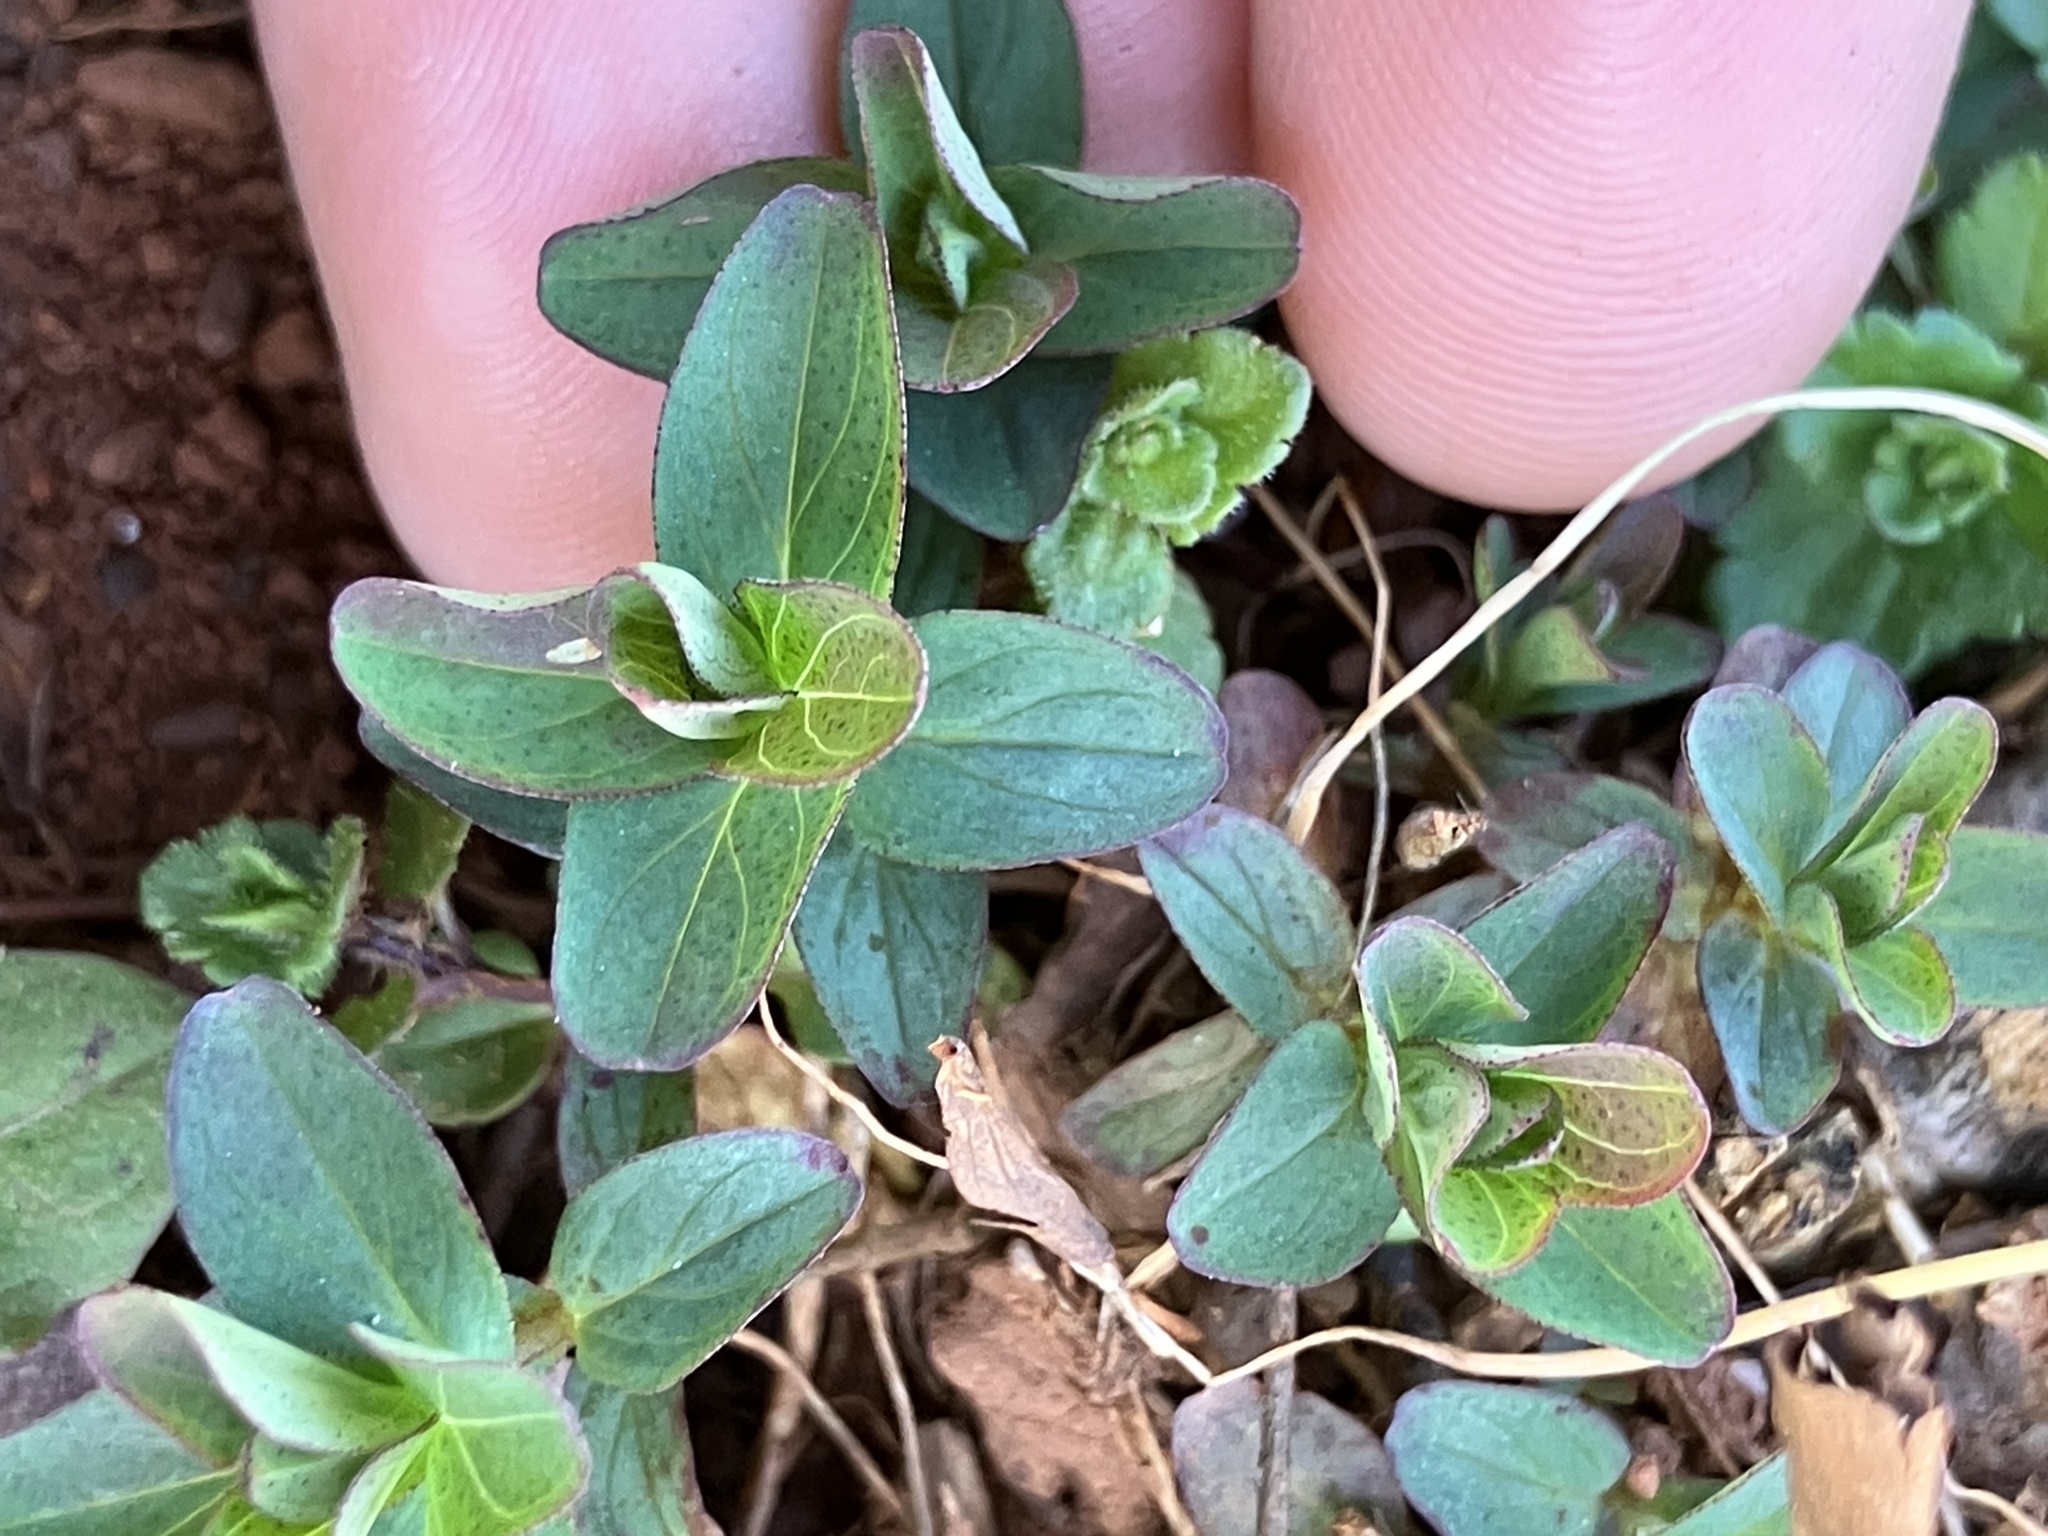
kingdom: Plantae
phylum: Tracheophyta
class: Magnoliopsida
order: Malpighiales
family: Hypericaceae
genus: Hypericum
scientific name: Hypericum punctatum
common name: Spotted st. john's-wort
